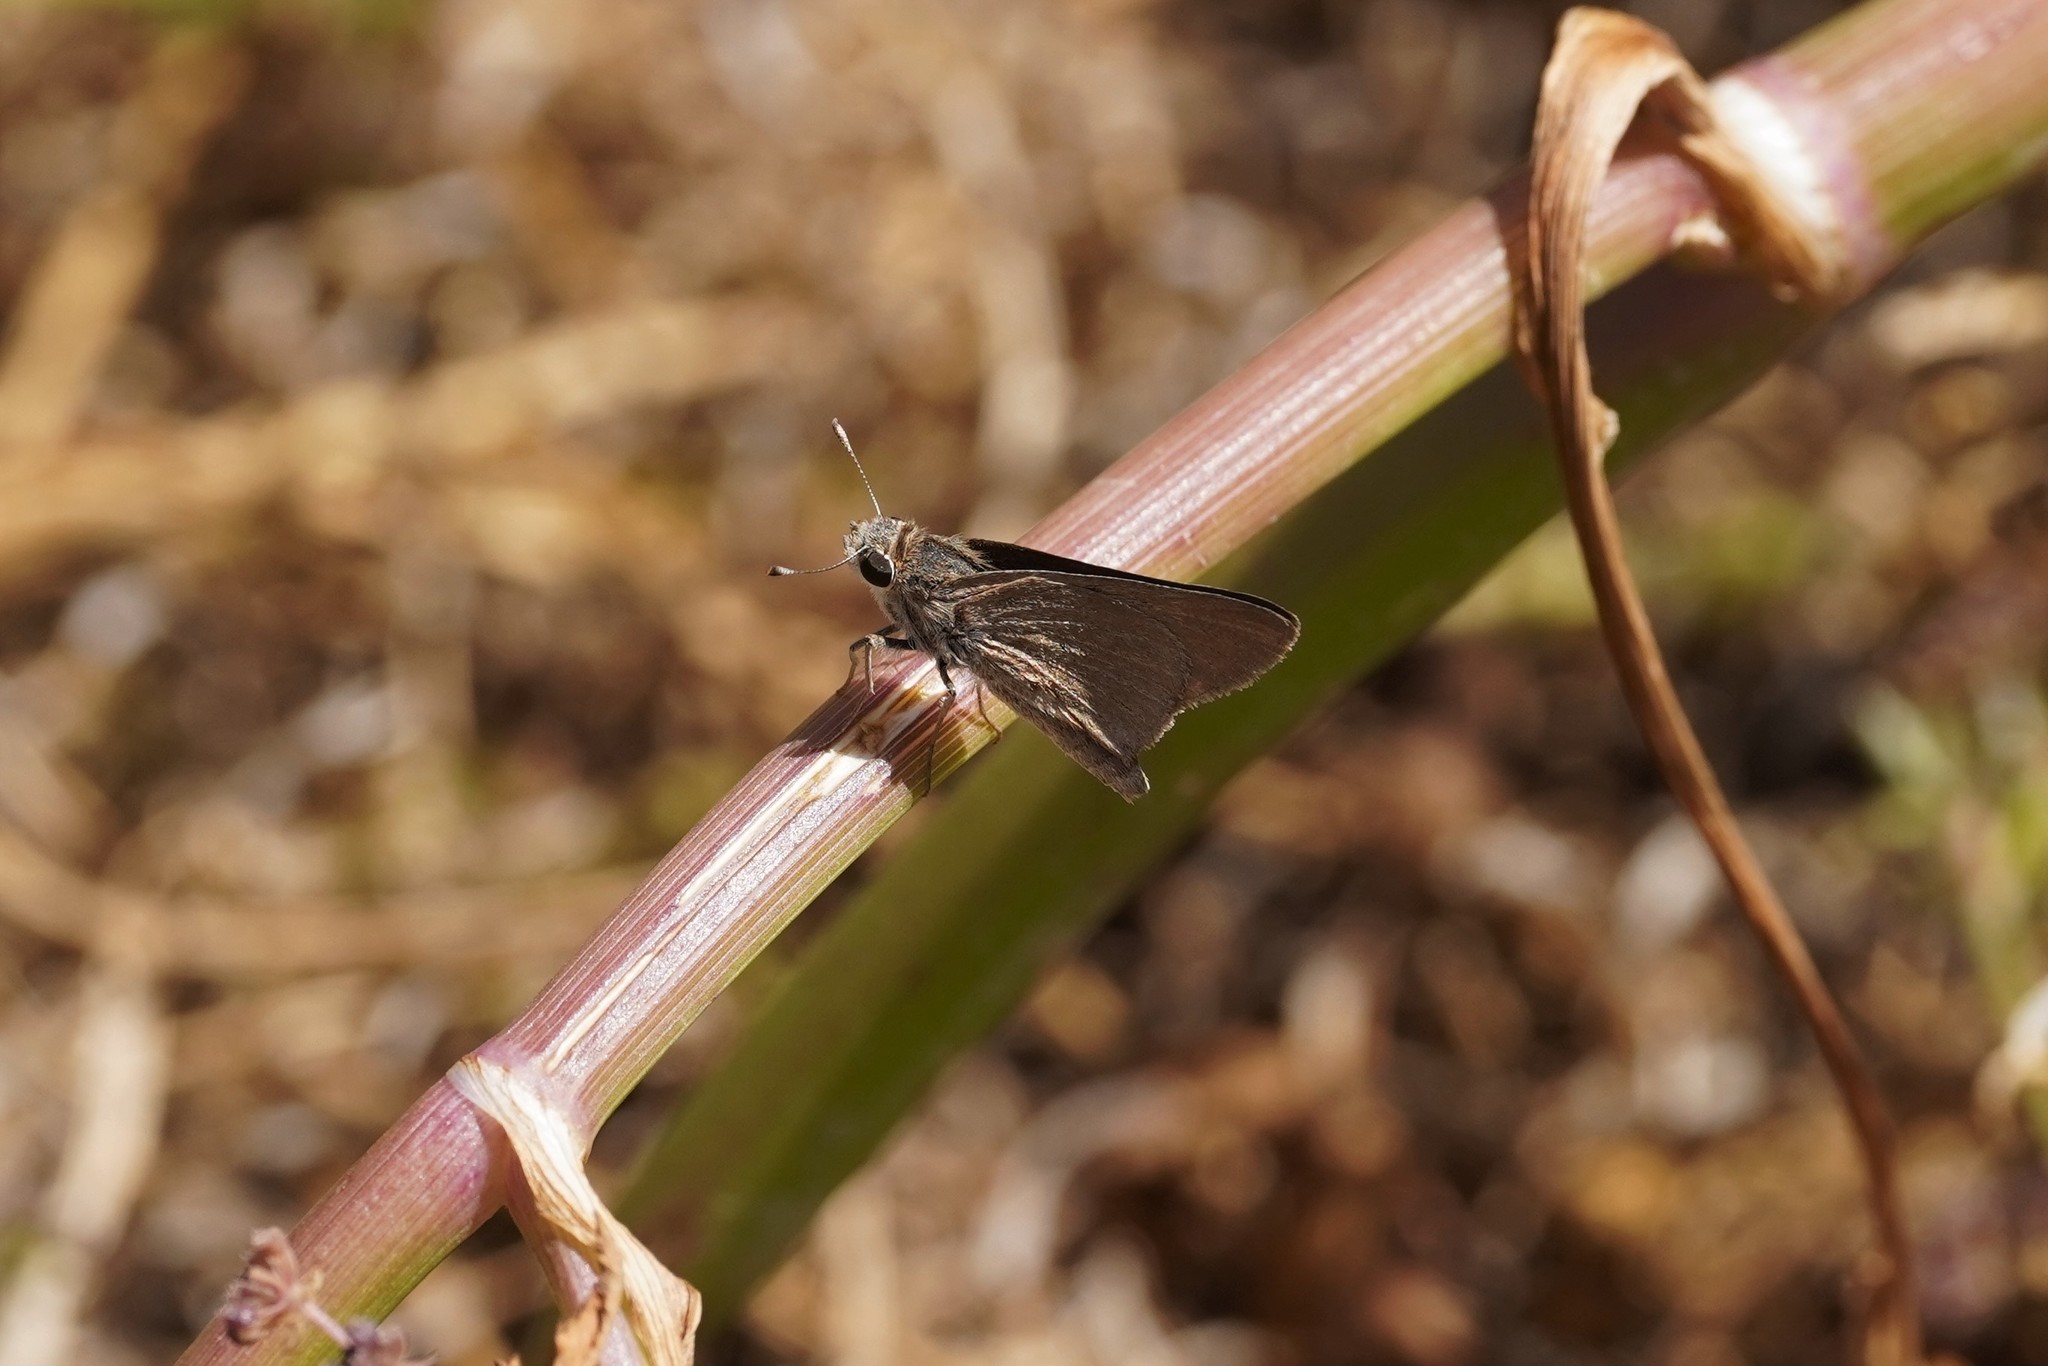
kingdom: Animalia
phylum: Arthropoda
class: Insecta
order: Lepidoptera
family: Hesperiidae
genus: Gegenes
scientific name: Gegenes nostrodamus
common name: Mediterranean skipper
